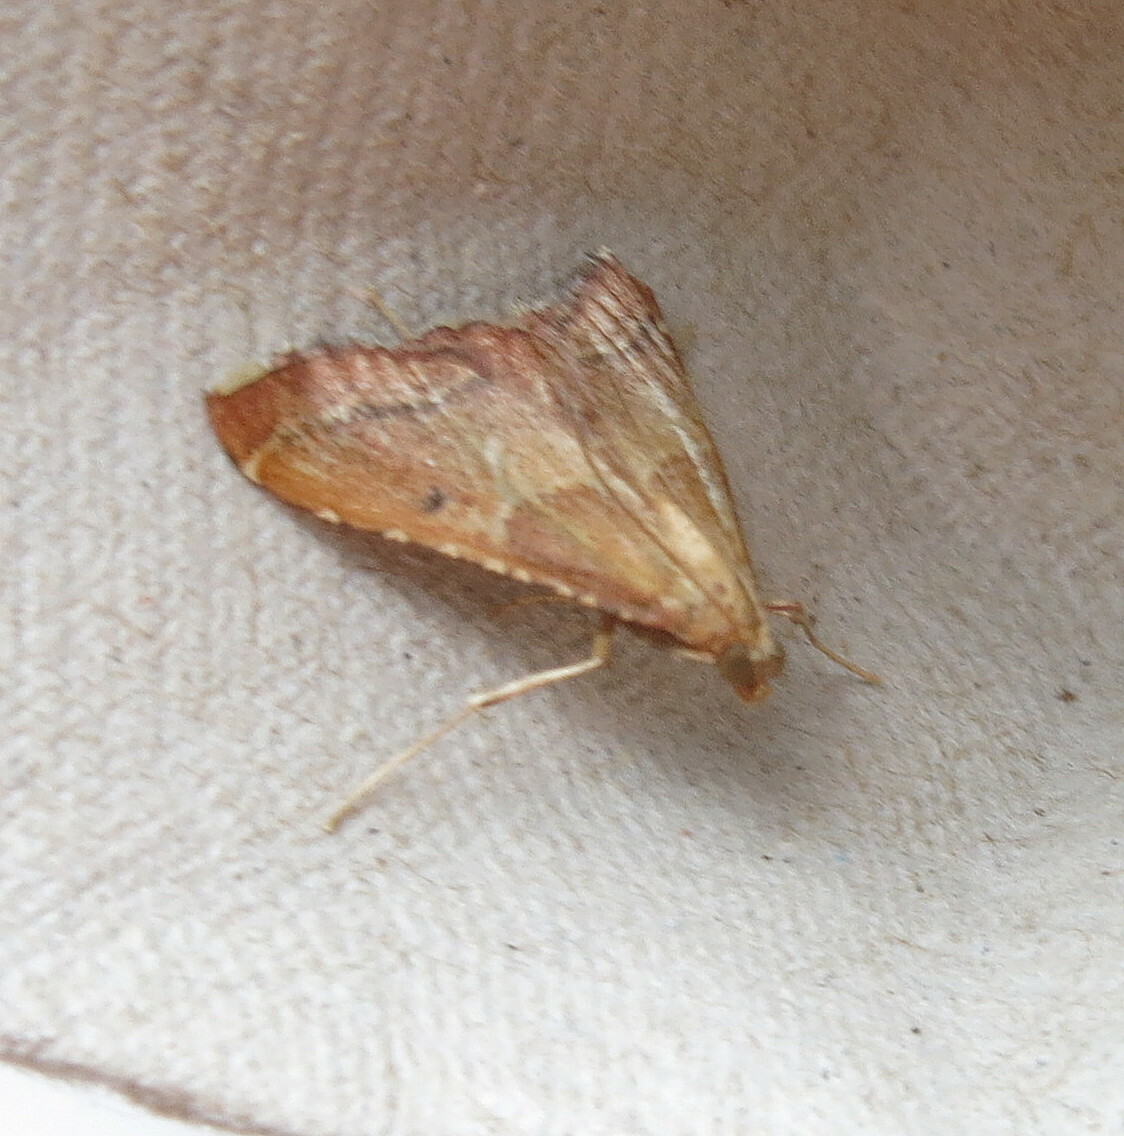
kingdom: Animalia
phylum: Arthropoda
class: Insecta
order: Lepidoptera
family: Pyralidae
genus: Endotricha
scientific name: Endotricha flammealis
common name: Rosy tabby
